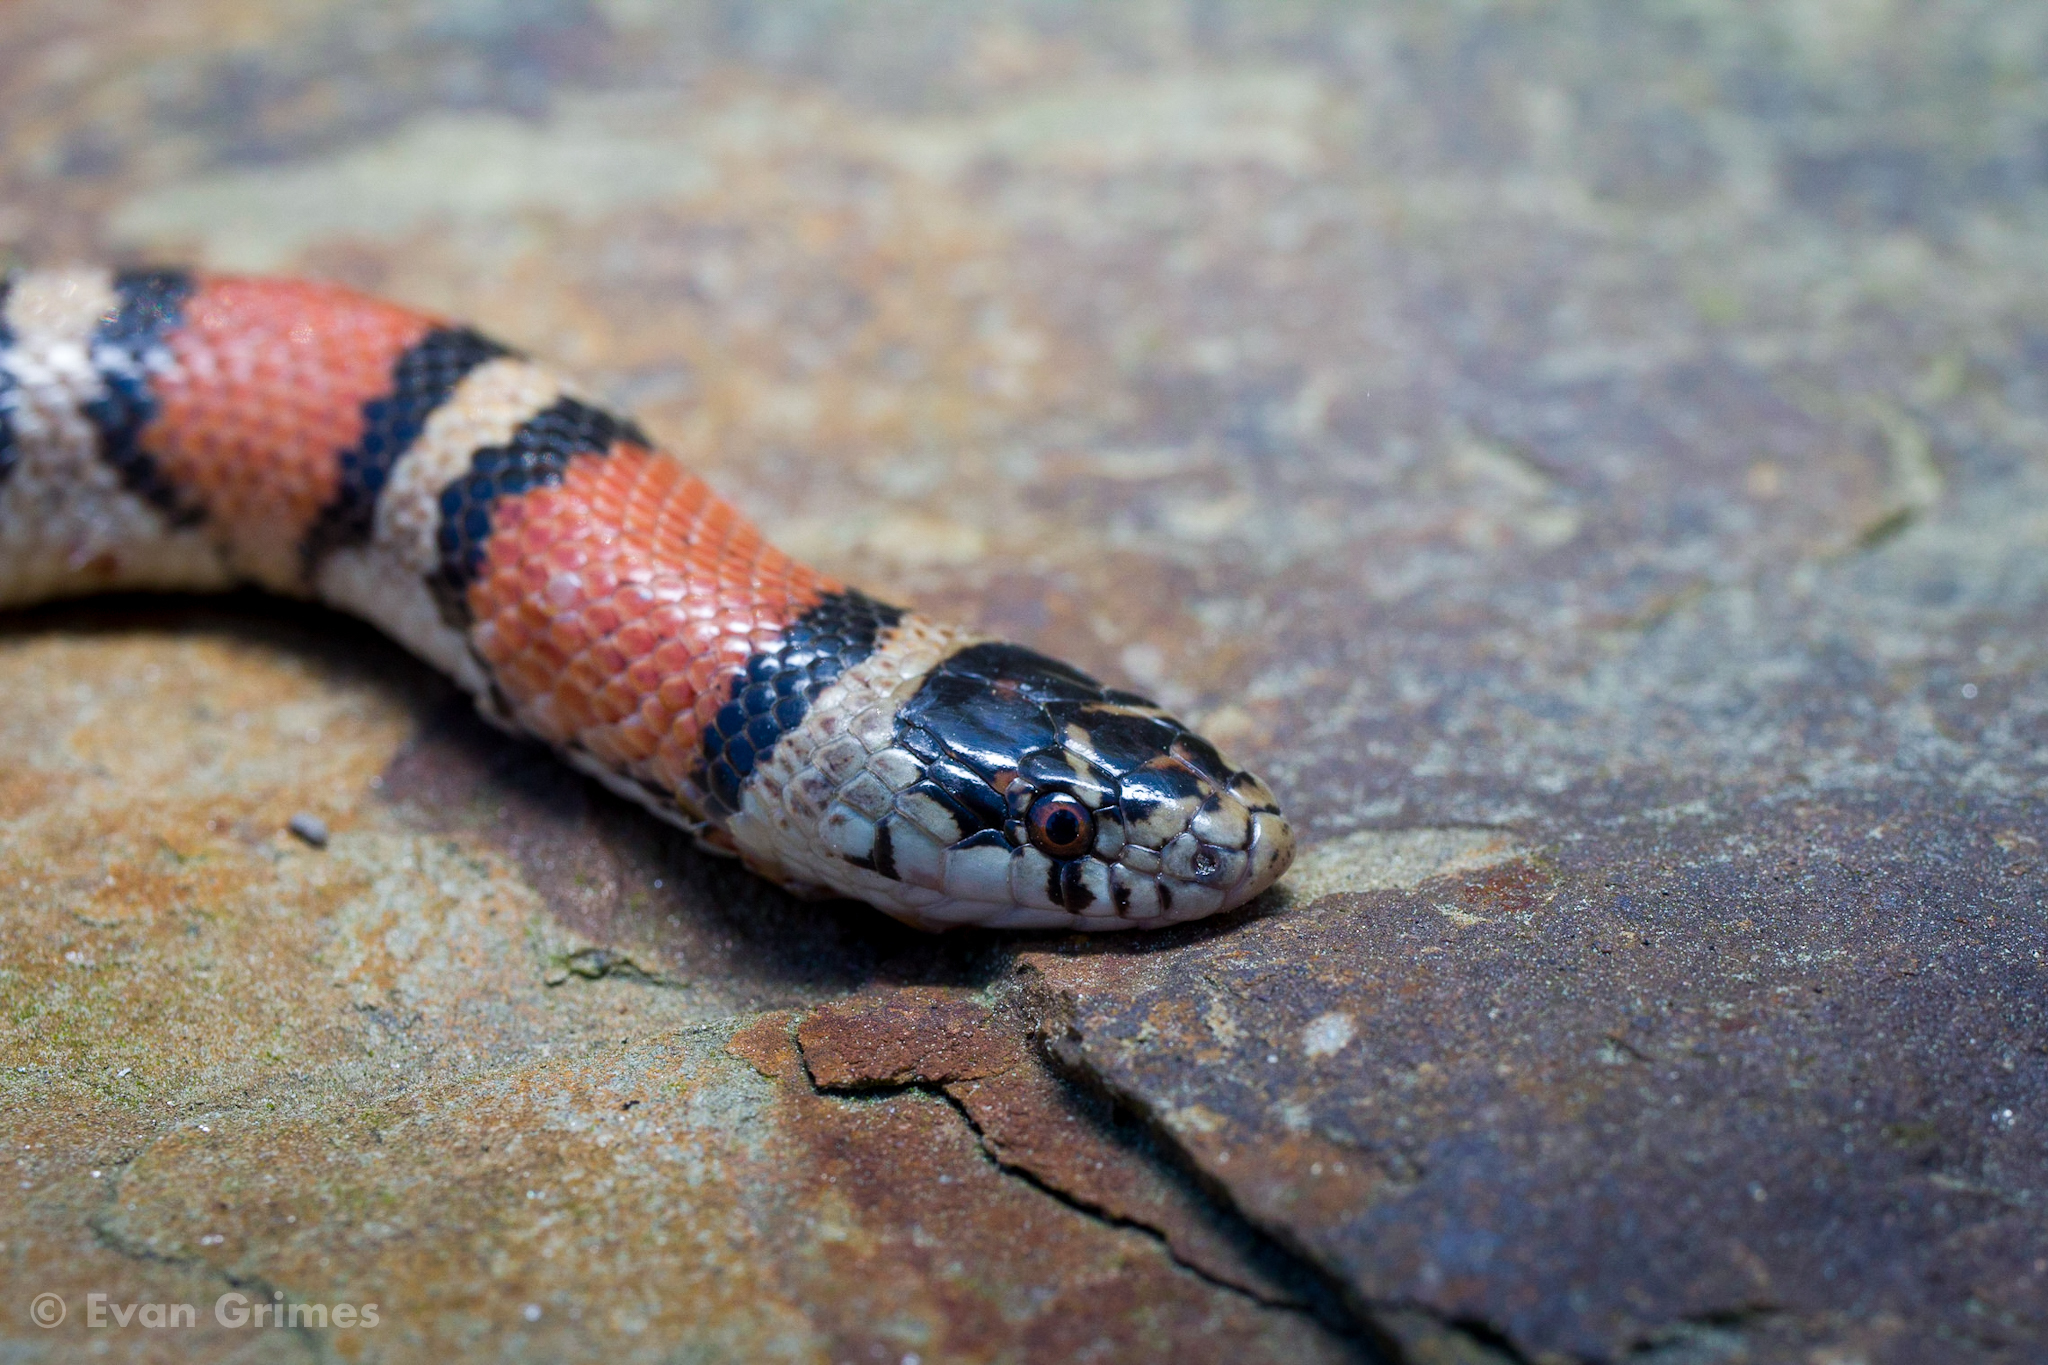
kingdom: Animalia
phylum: Chordata
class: Squamata
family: Colubridae
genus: Lampropeltis
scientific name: Lampropeltis gentilis
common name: Central plains milksnake
